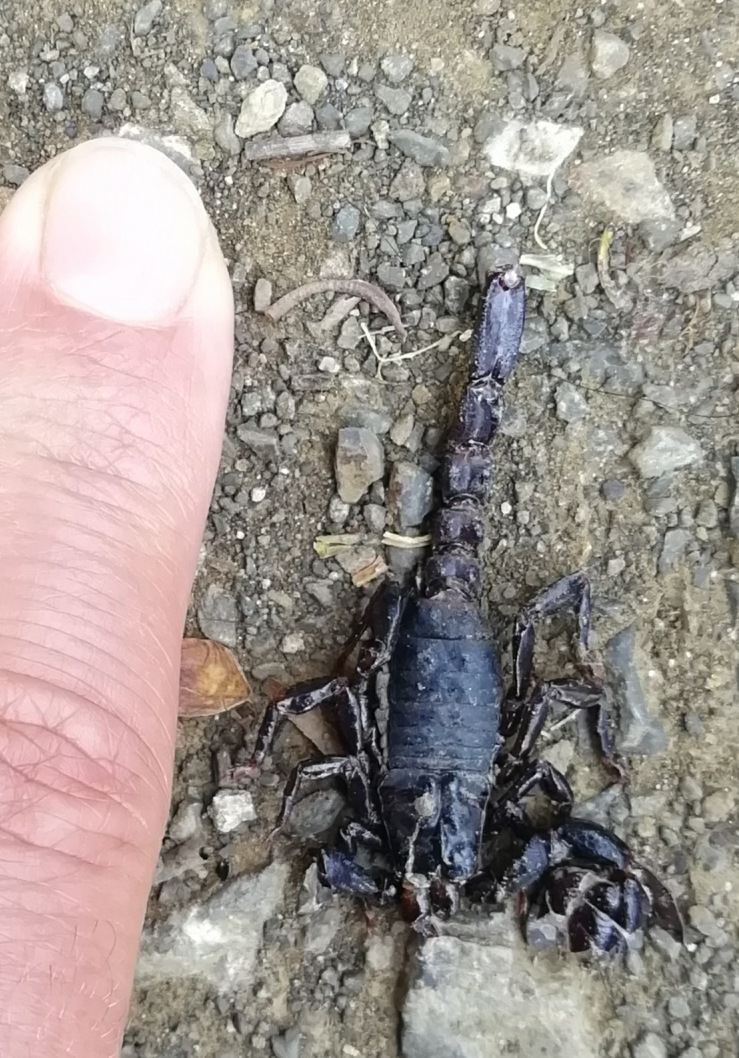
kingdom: Animalia
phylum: Arthropoda
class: Arachnida
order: Scorpiones
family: Chactidae
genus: Teuthraustes
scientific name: Teuthraustes gervaisii
